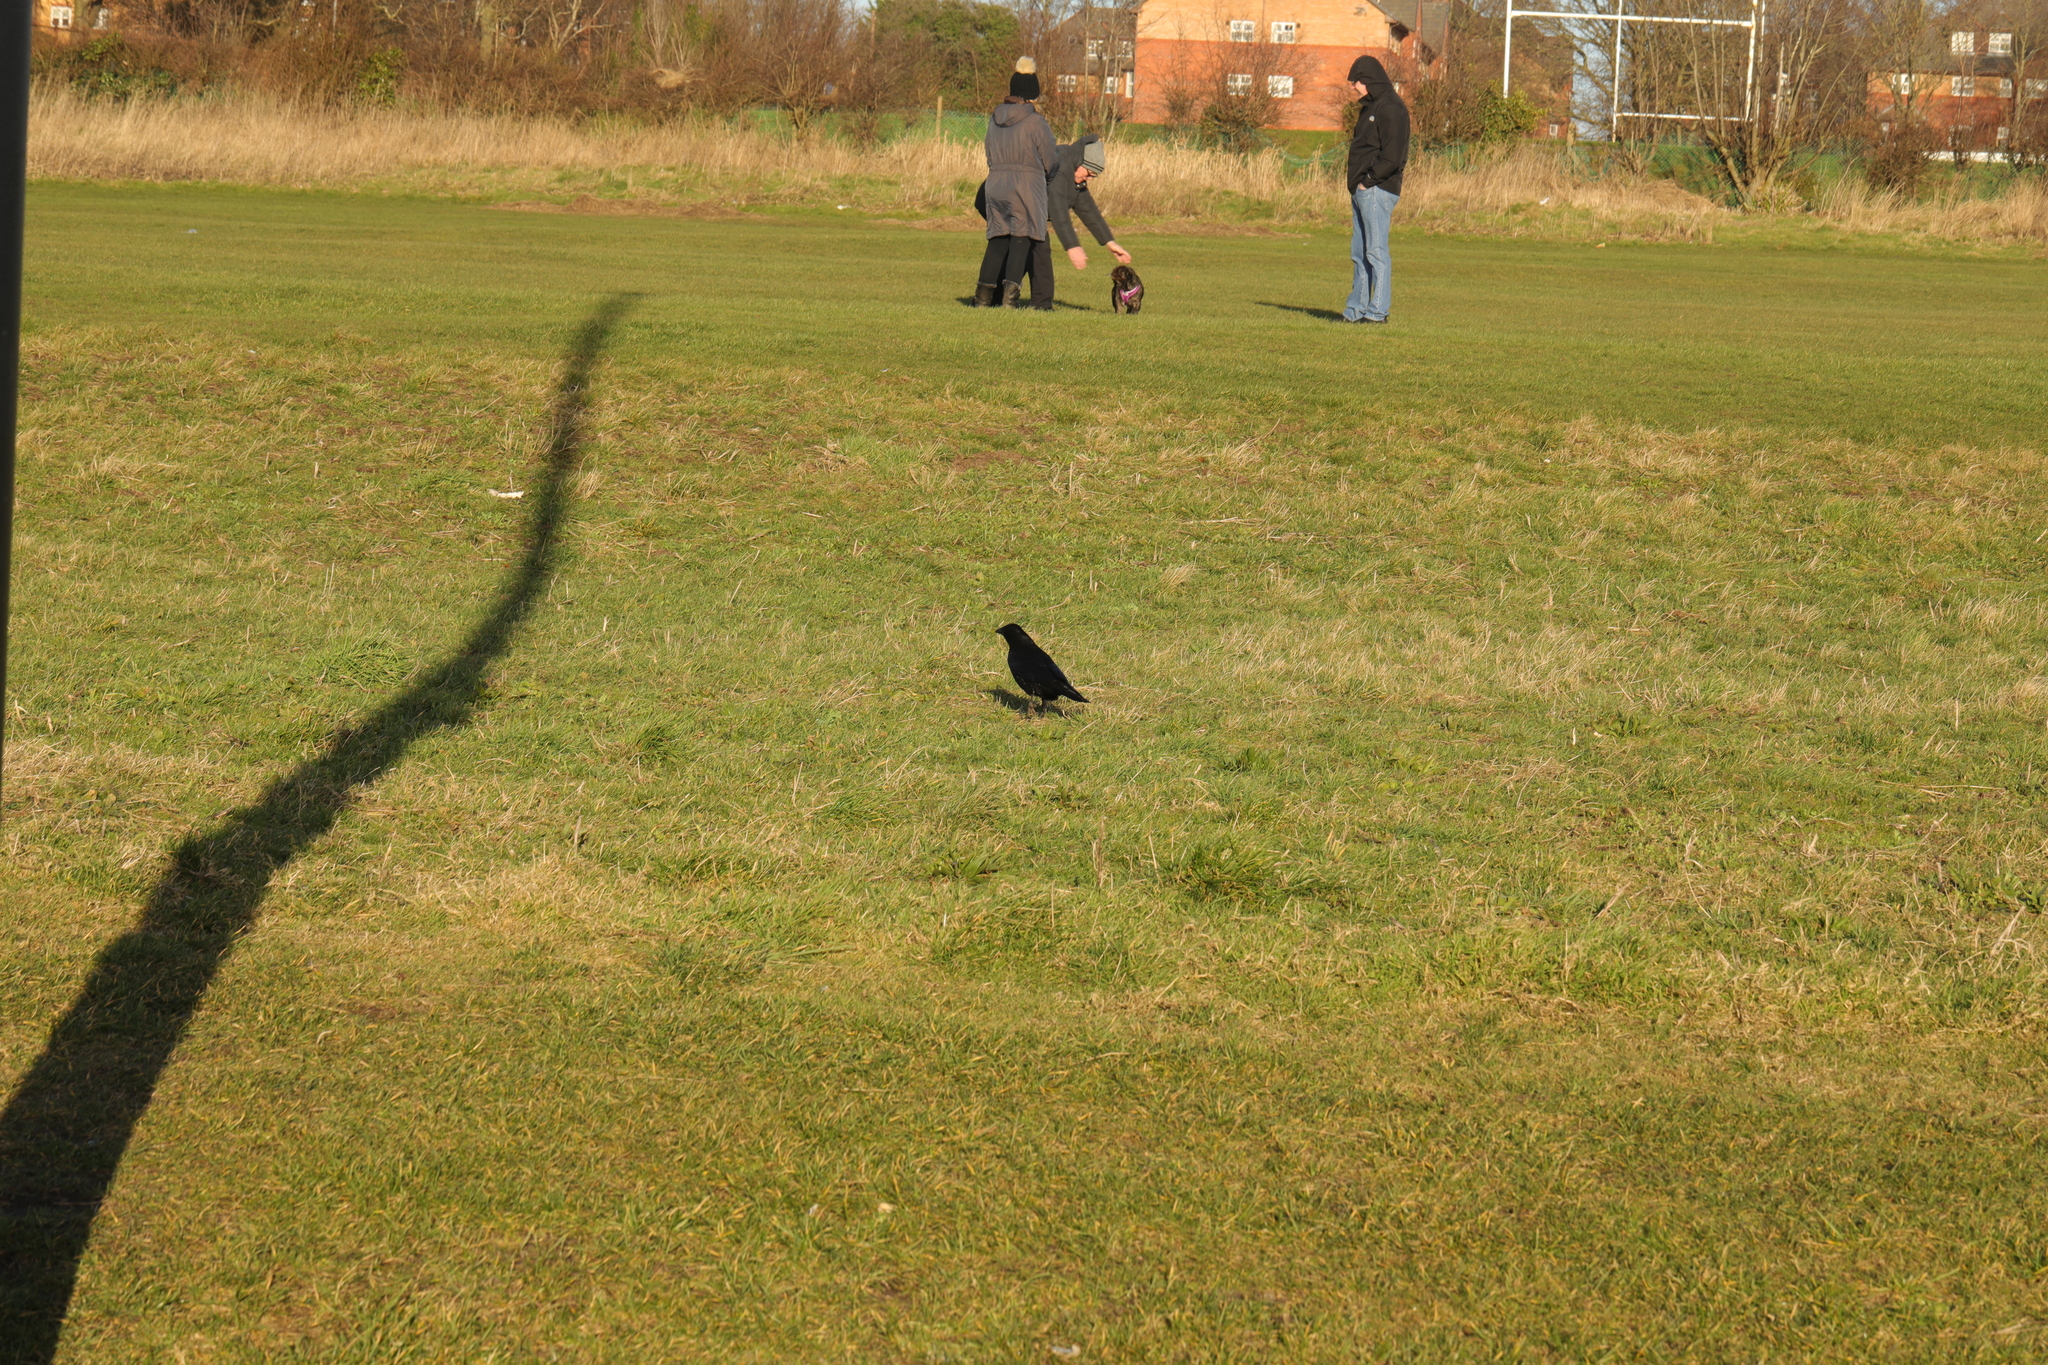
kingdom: Animalia
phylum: Chordata
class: Aves
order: Passeriformes
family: Corvidae
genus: Corvus
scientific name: Corvus corone
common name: Carrion crow
